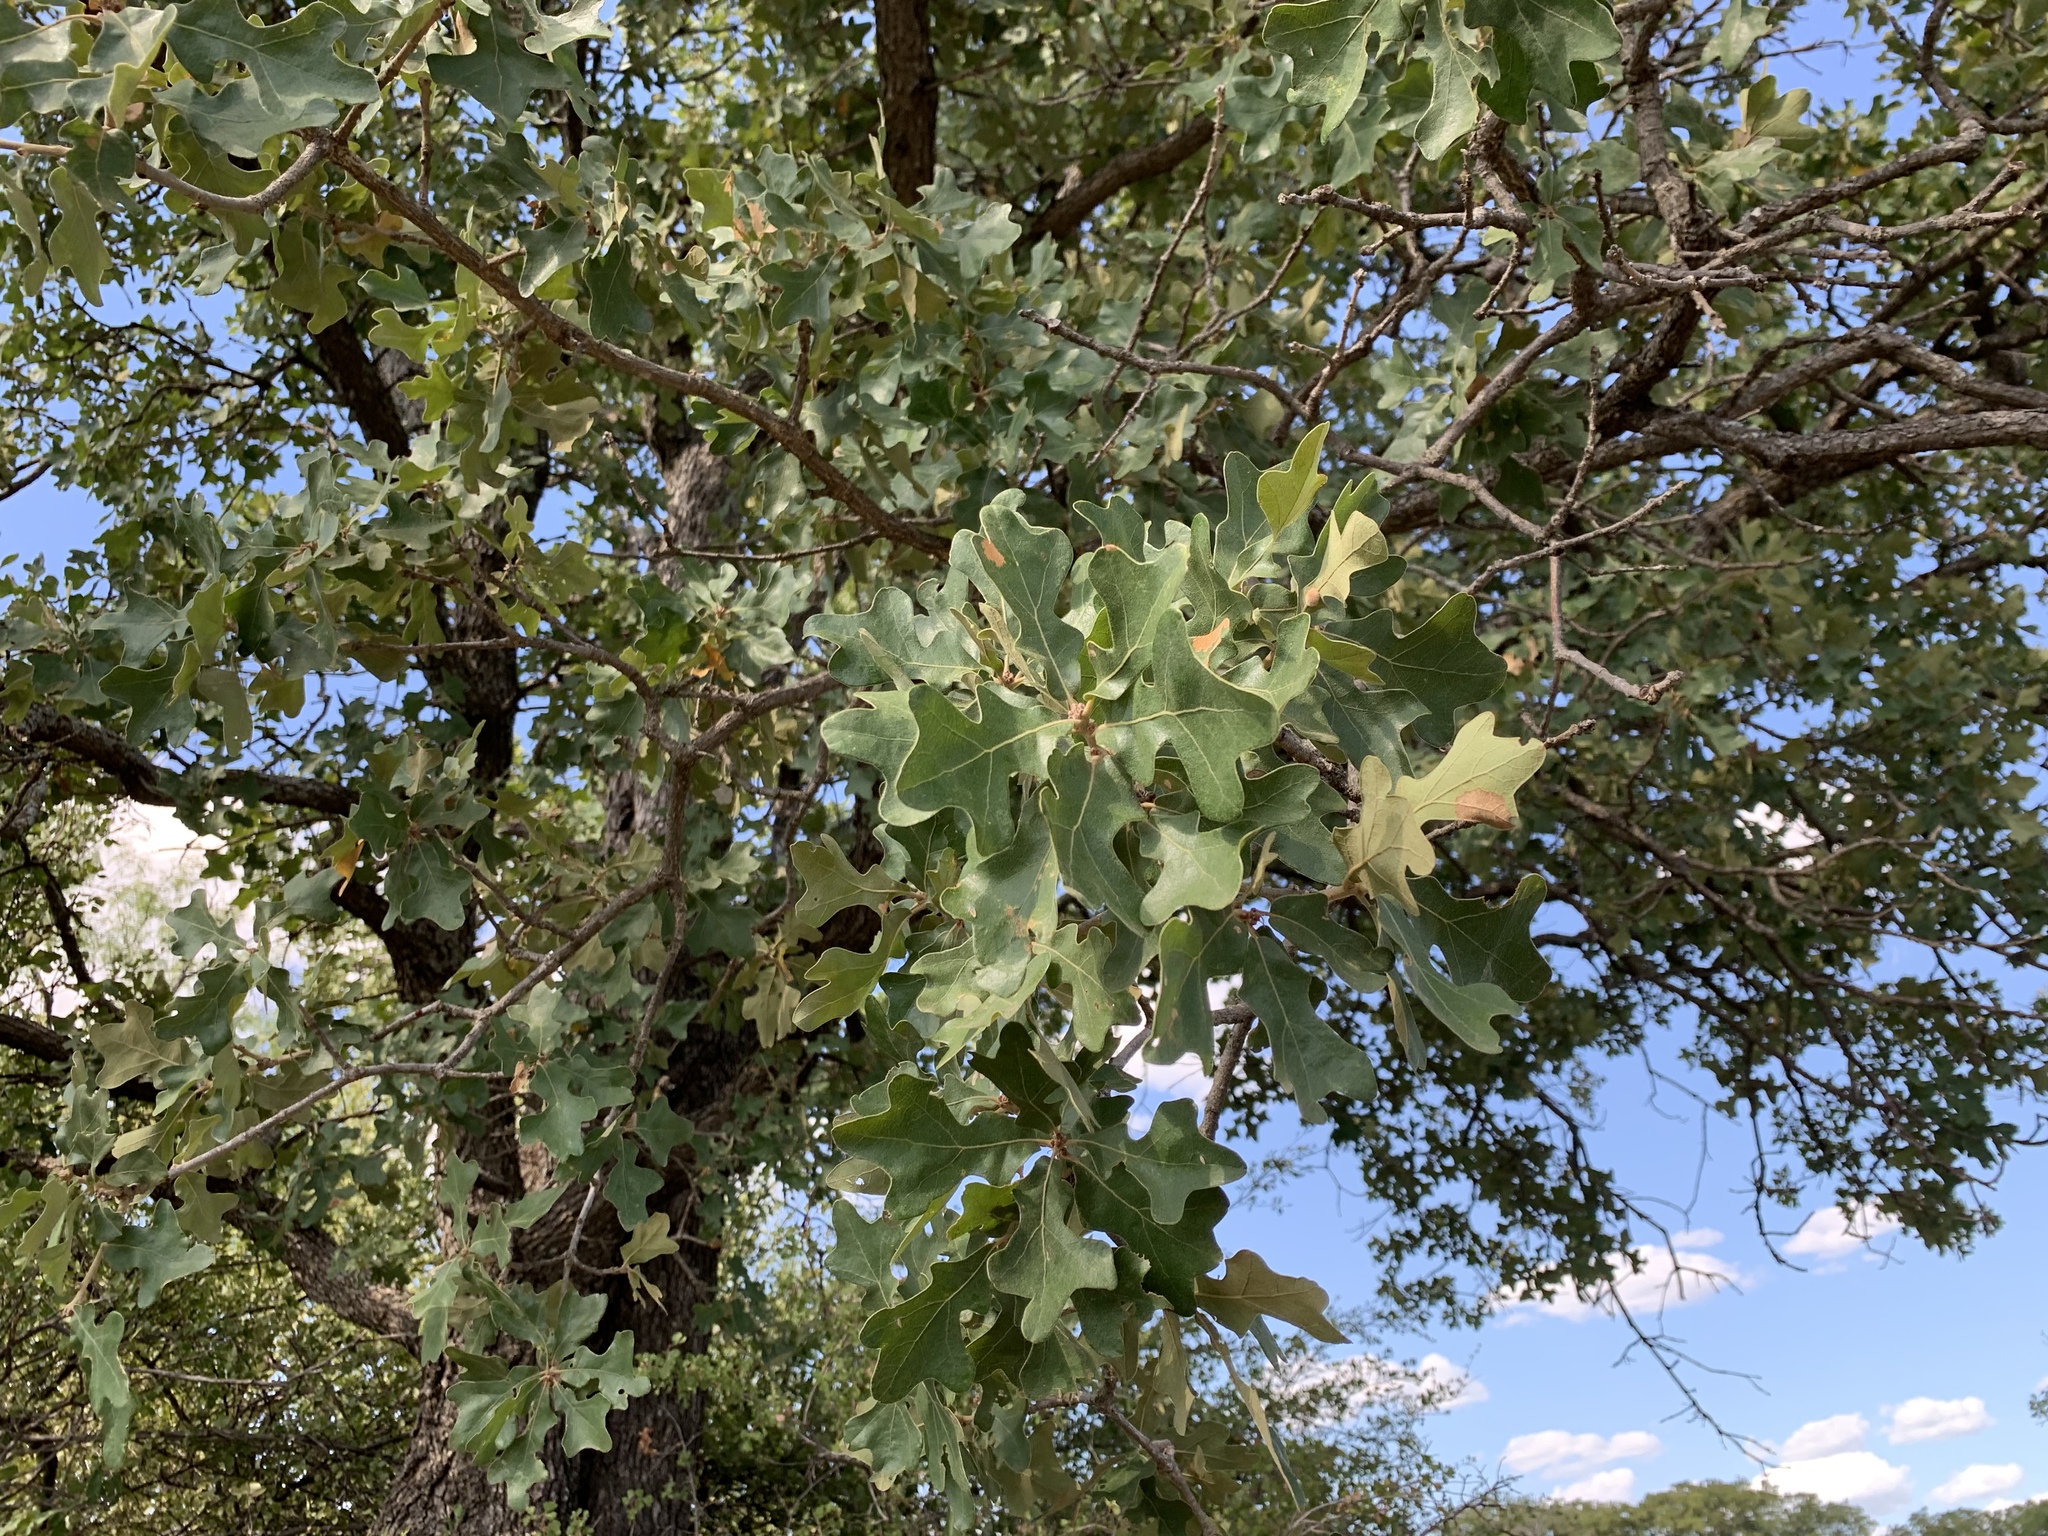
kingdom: Plantae
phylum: Tracheophyta
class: Magnoliopsida
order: Fagales
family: Fagaceae
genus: Quercus
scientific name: Quercus stellata
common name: Post oak
